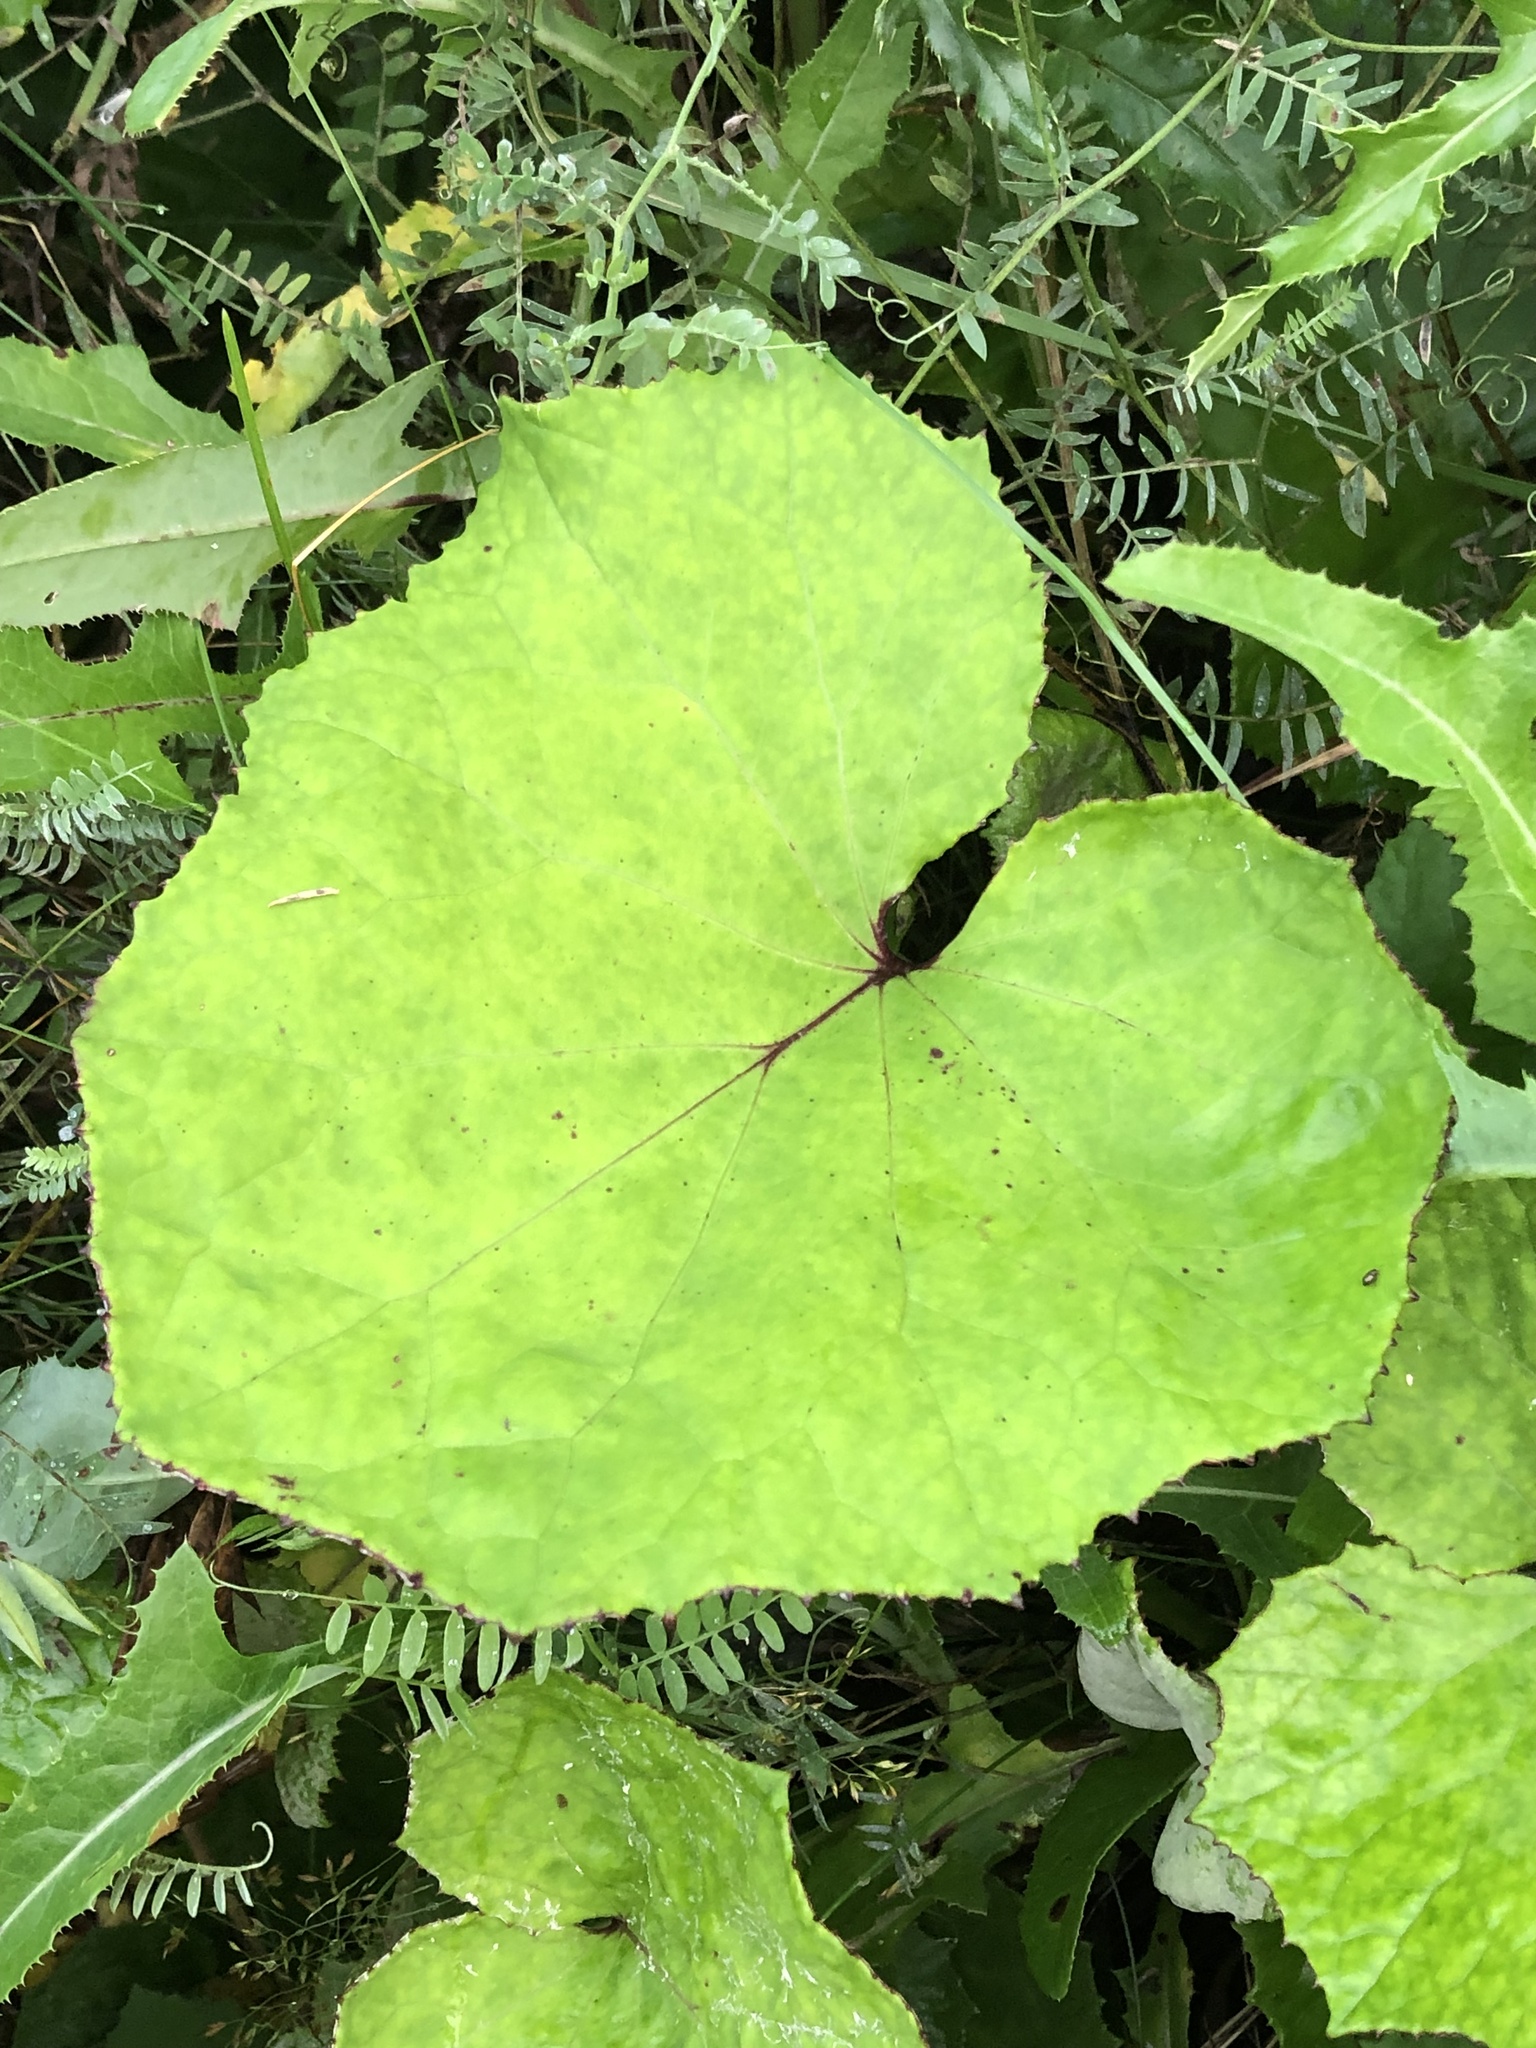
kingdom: Plantae
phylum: Tracheophyta
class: Magnoliopsida
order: Asterales
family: Asteraceae
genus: Tussilago
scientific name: Tussilago farfara
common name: Coltsfoot
